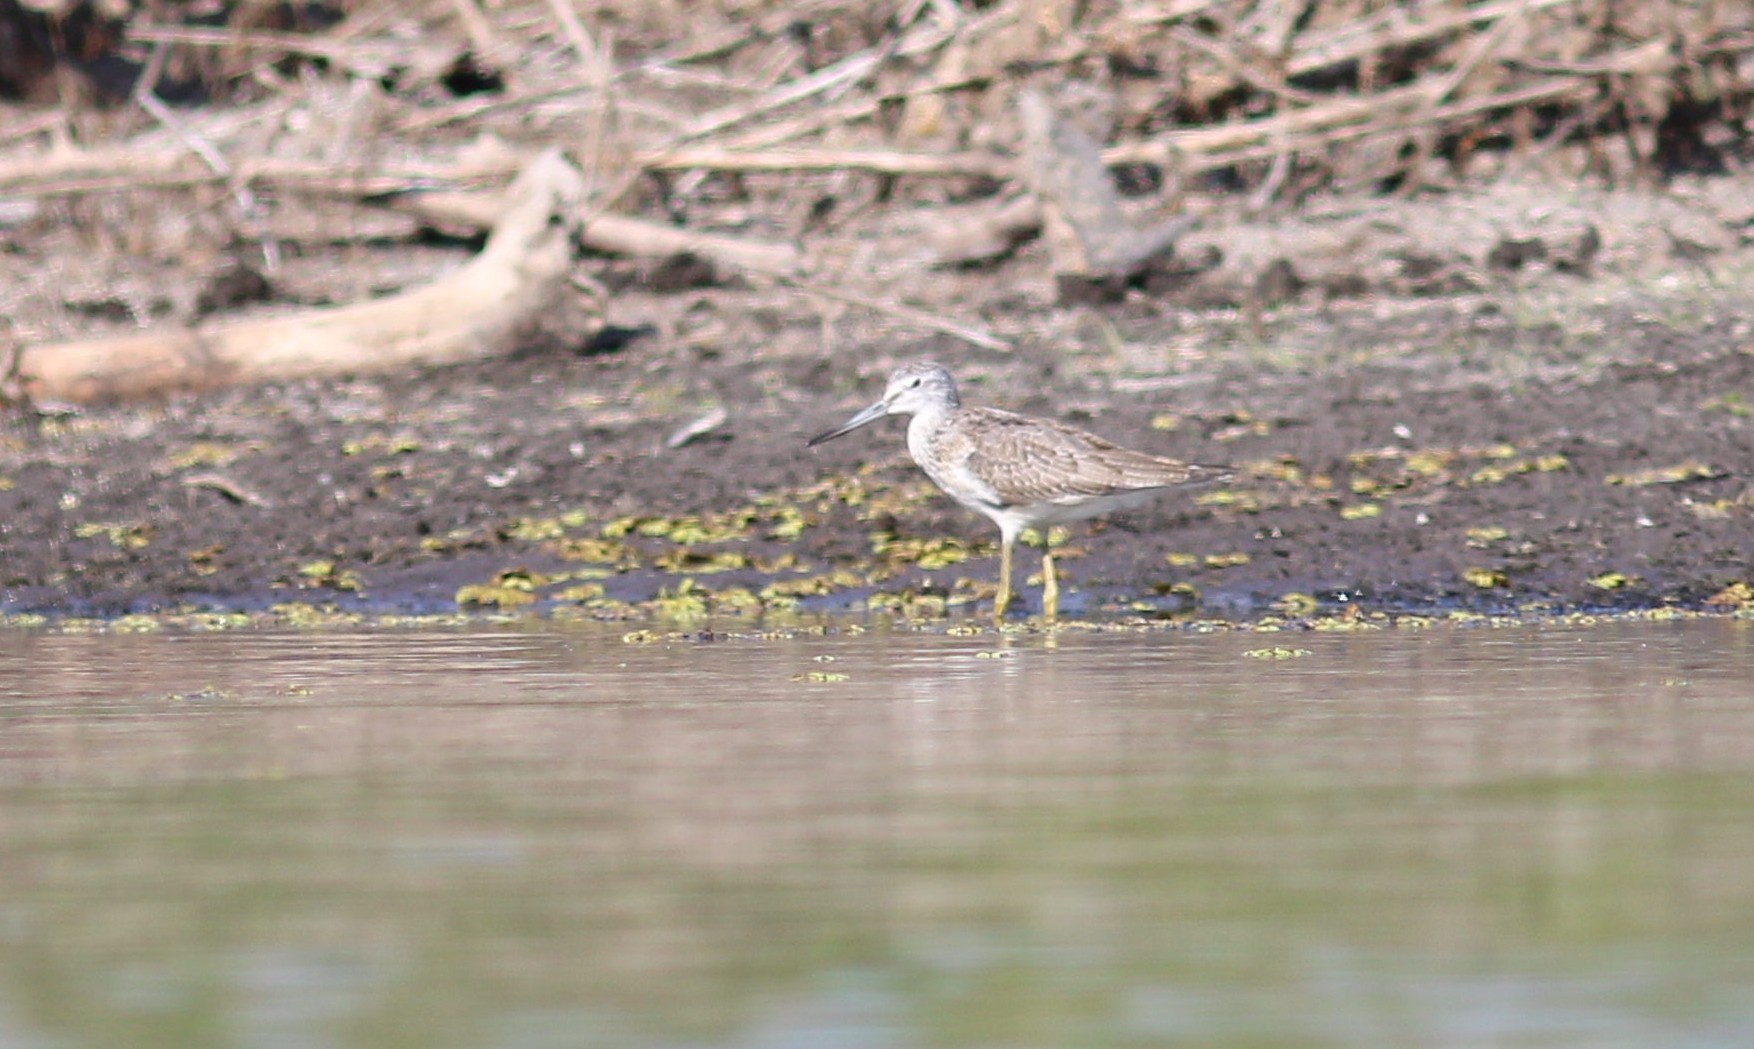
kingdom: Animalia
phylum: Chordata
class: Aves
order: Charadriiformes
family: Scolopacidae
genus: Tringa
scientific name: Tringa nebularia
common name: Common greenshank
